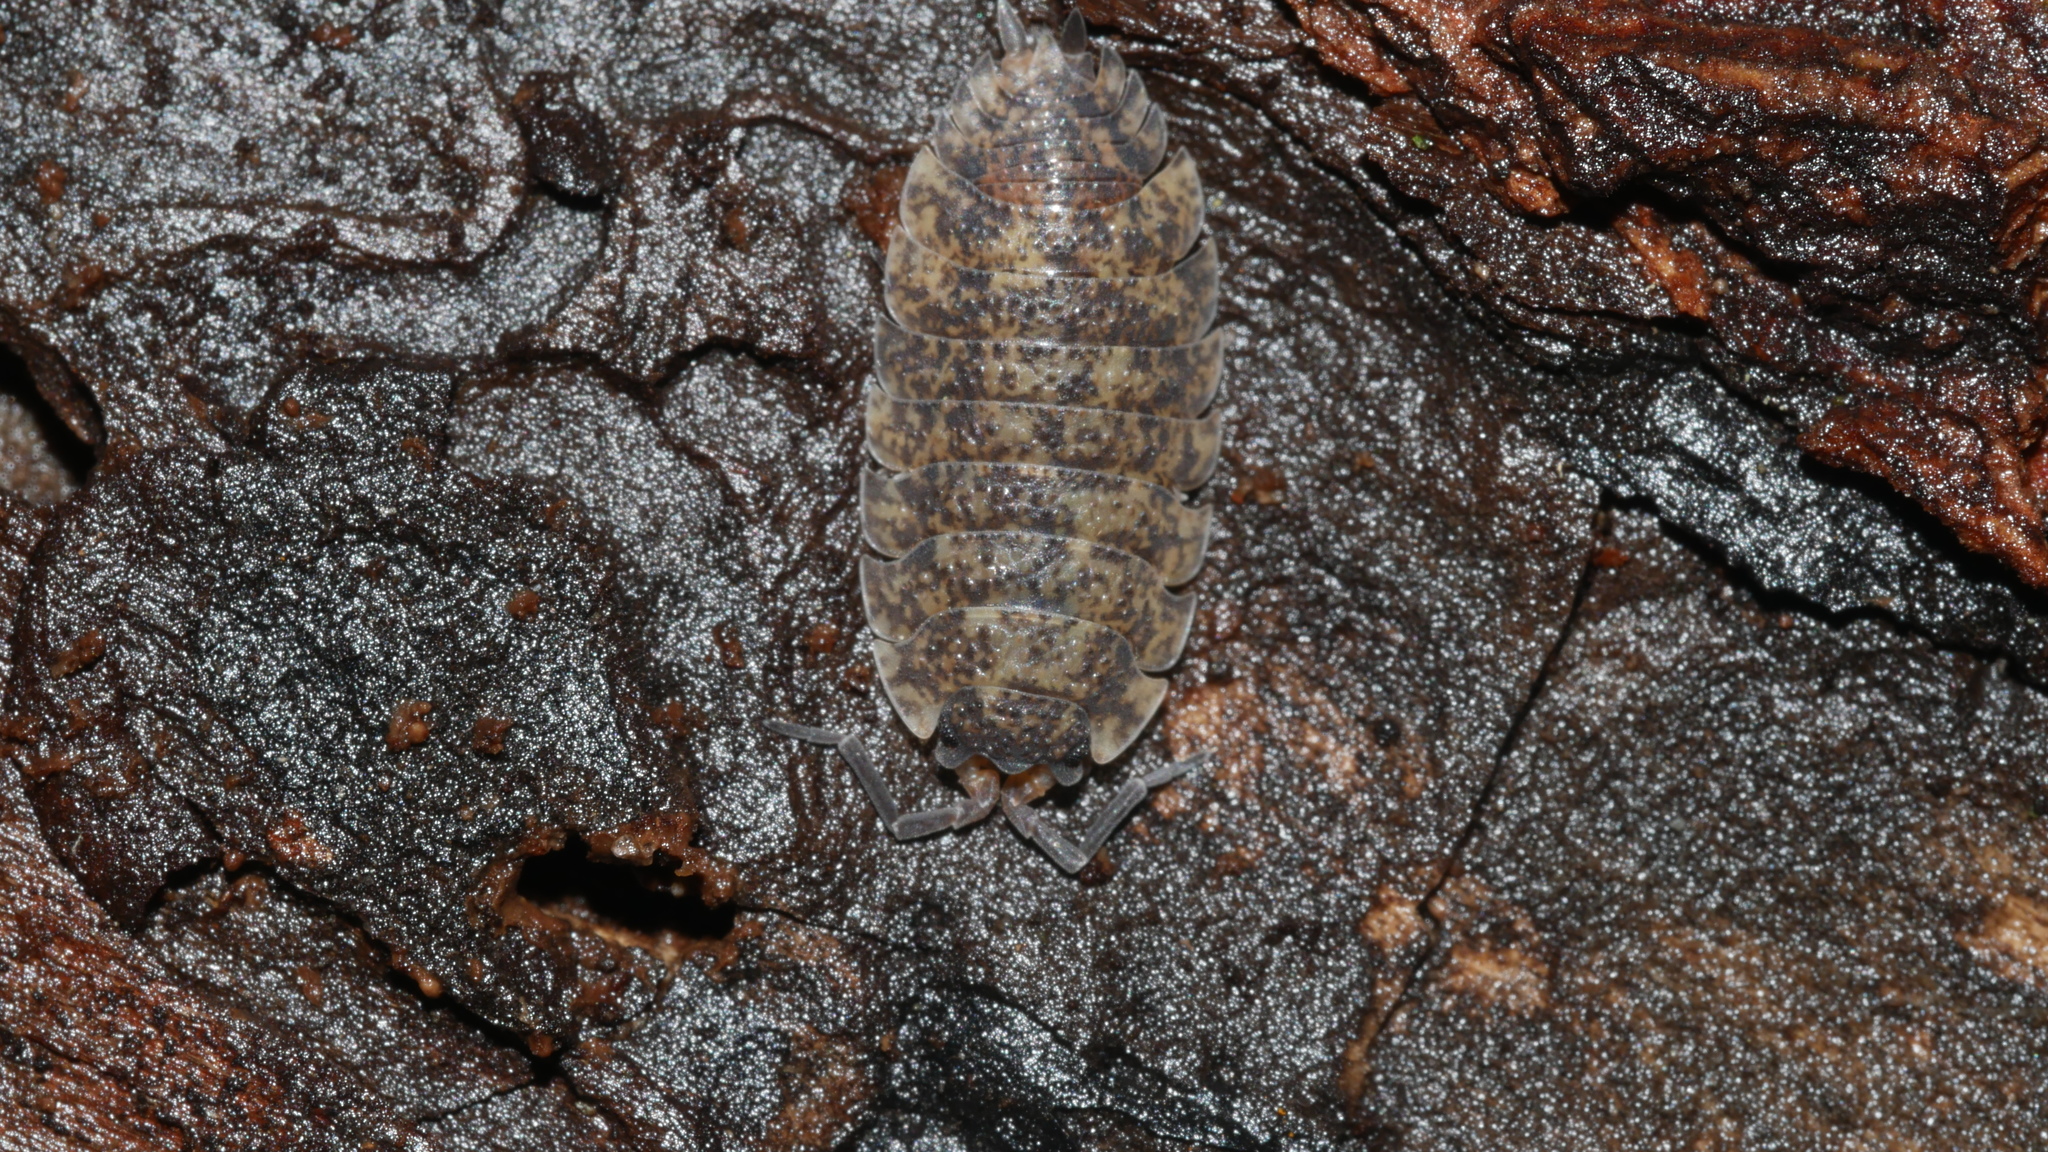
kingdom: Animalia
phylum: Arthropoda
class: Malacostraca
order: Isopoda
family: Porcellionidae
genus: Porcellio
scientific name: Porcellio scaber
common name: Common rough woodlouse
